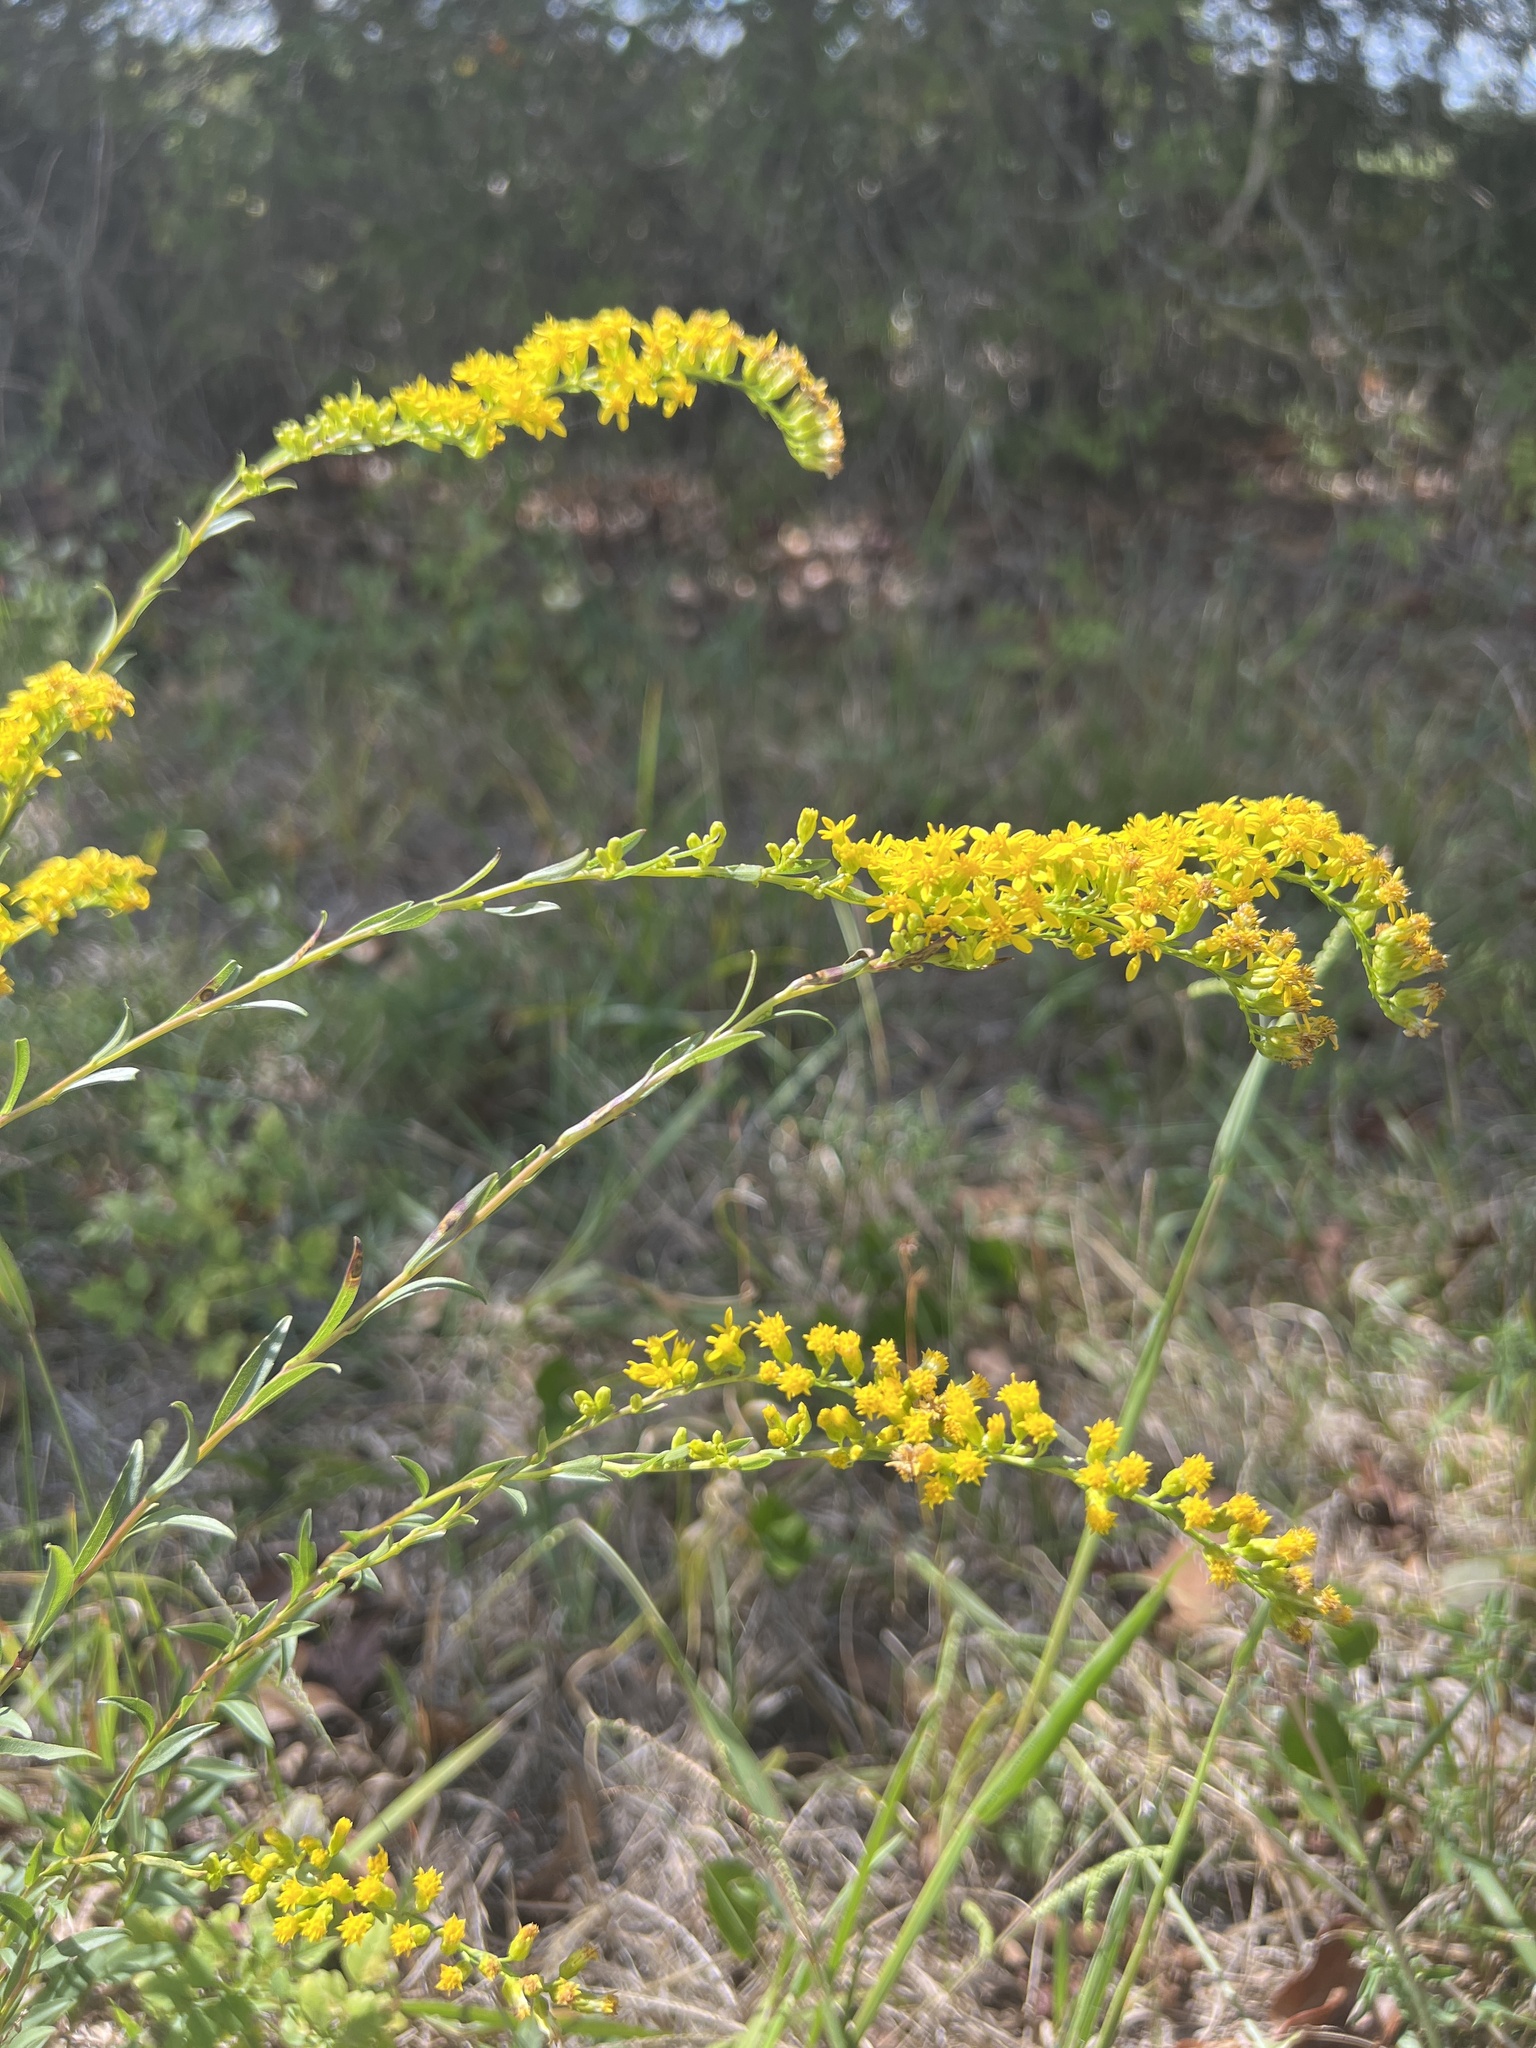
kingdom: Plantae
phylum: Tracheophyta
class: Magnoliopsida
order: Asterales
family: Asteraceae
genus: Solidago
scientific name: Solidago austrina
